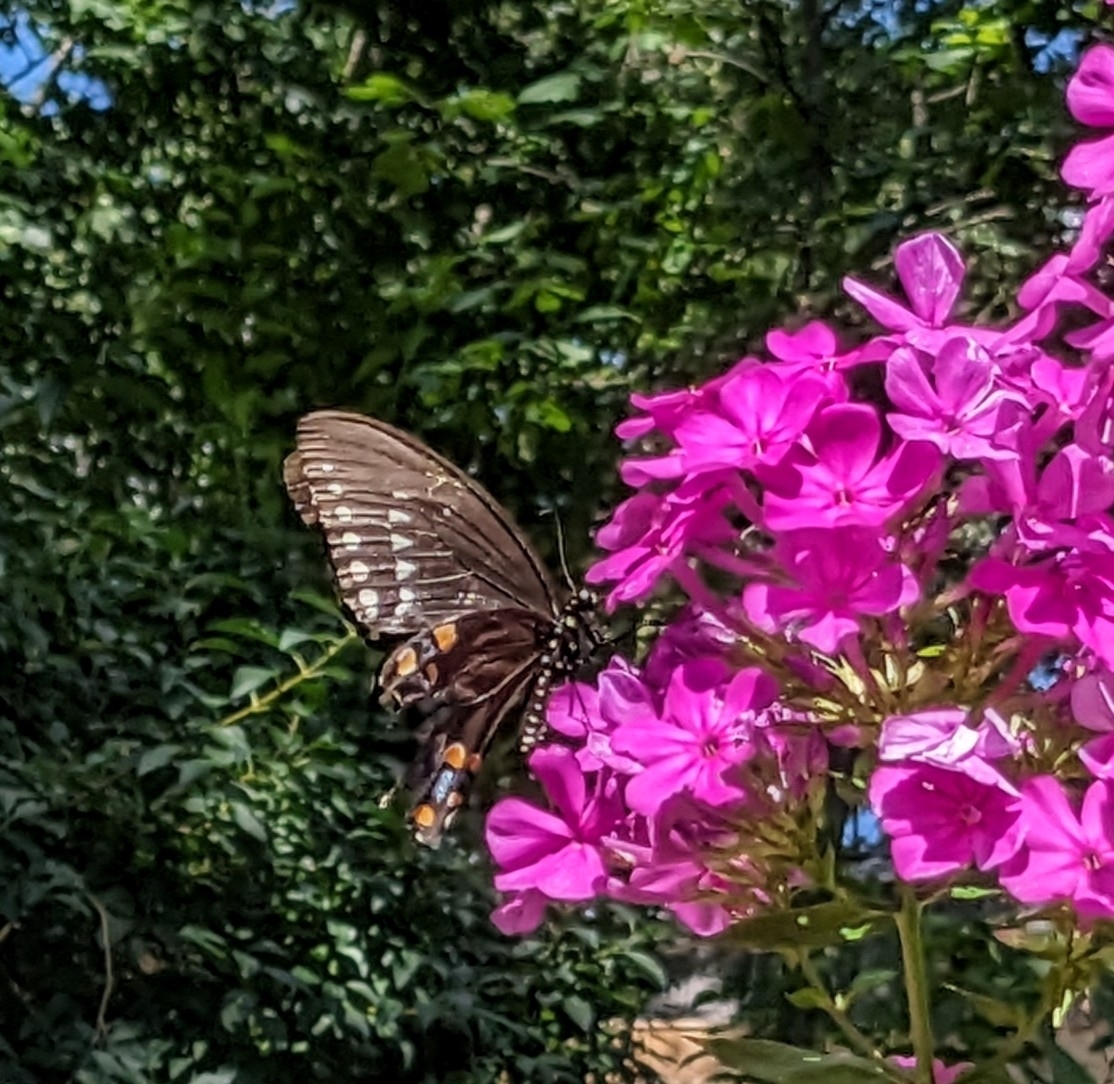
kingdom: Animalia
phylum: Arthropoda
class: Insecta
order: Lepidoptera
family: Papilionidae
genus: Papilio
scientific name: Papilio troilus
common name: Spicebush swallowtail
